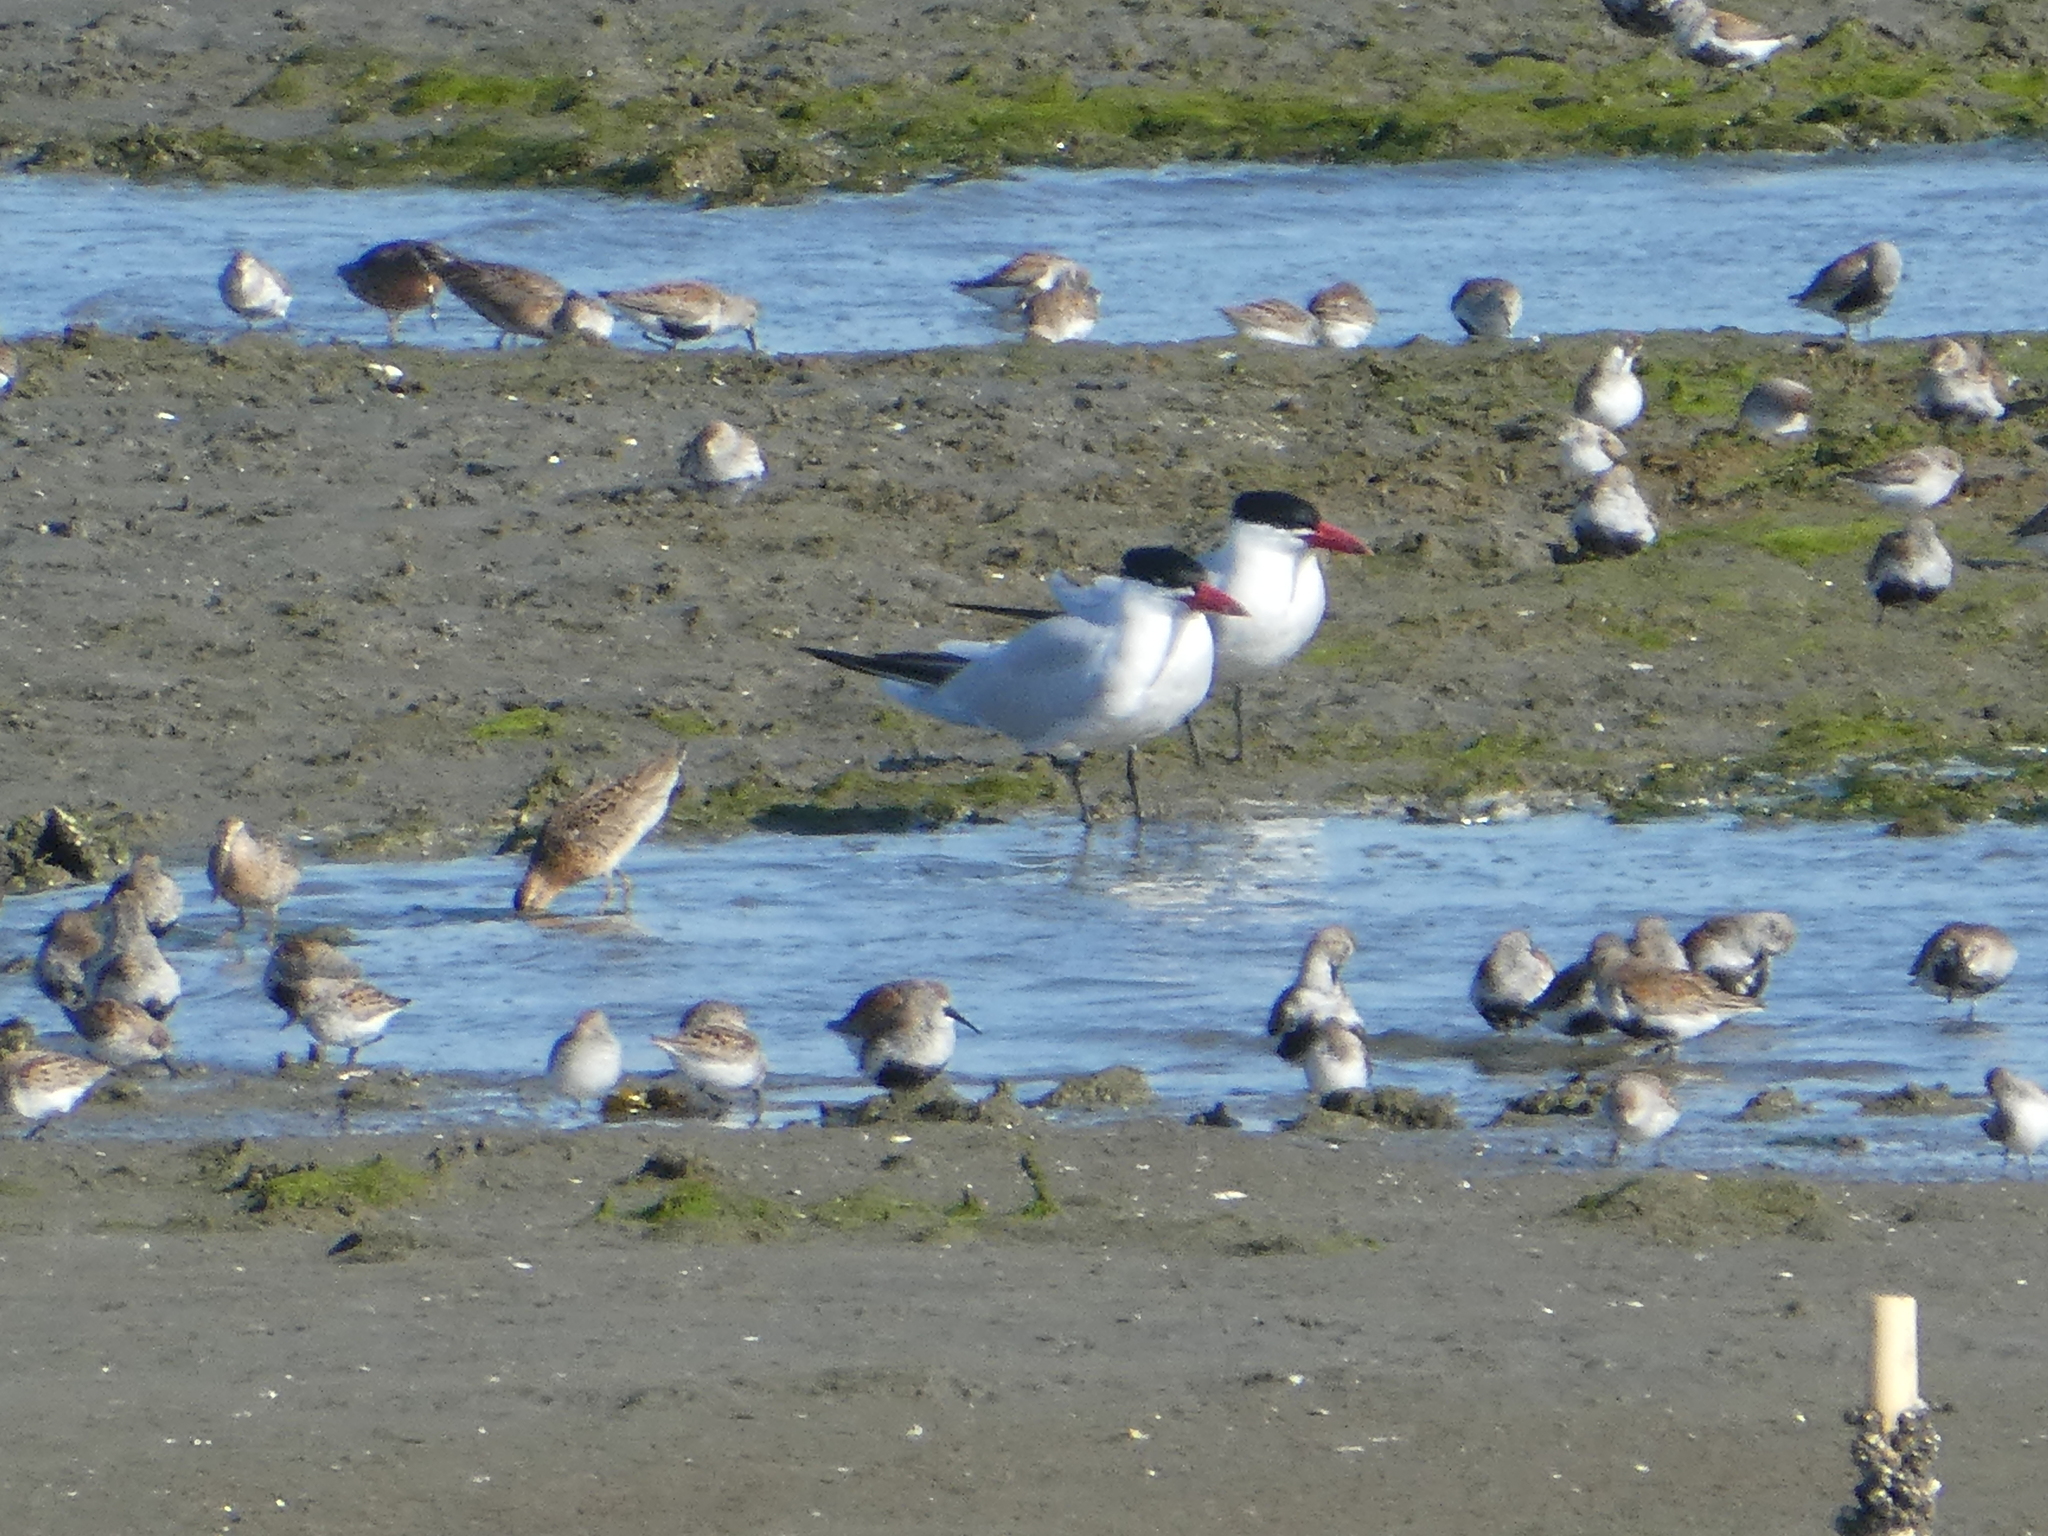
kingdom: Animalia
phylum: Chordata
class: Aves
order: Charadriiformes
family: Laridae
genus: Hydroprogne
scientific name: Hydroprogne caspia
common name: Caspian tern
